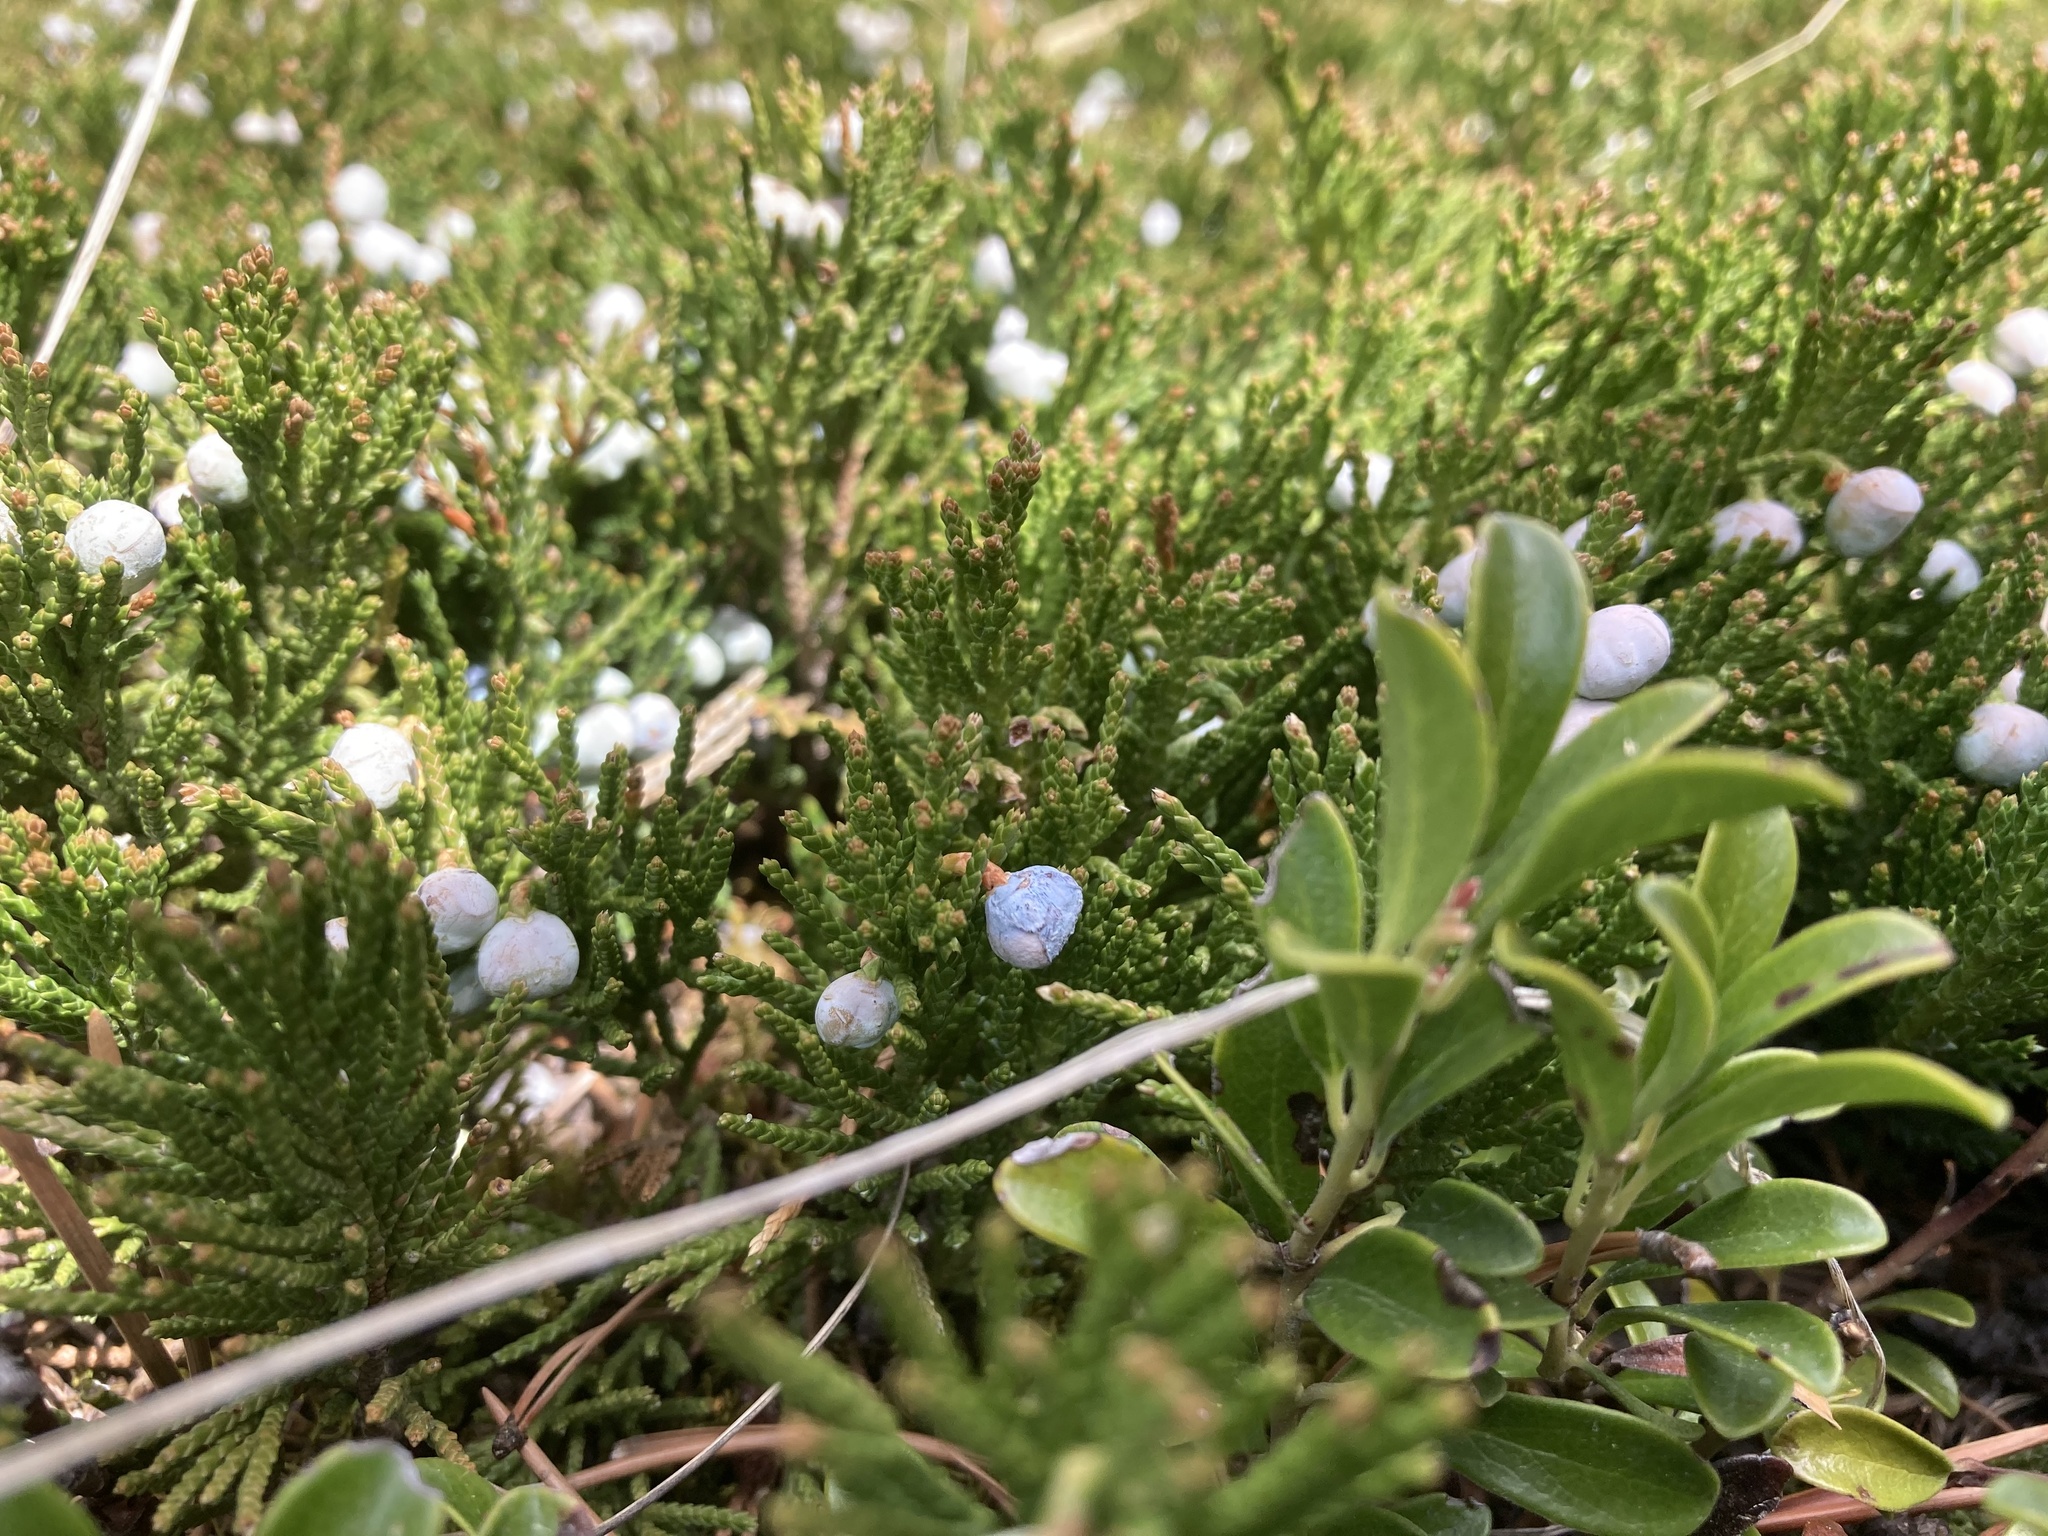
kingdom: Plantae
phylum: Tracheophyta
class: Pinopsida
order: Pinales
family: Cupressaceae
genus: Juniperus
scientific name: Juniperus horizontalis
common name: Creeping juniper
